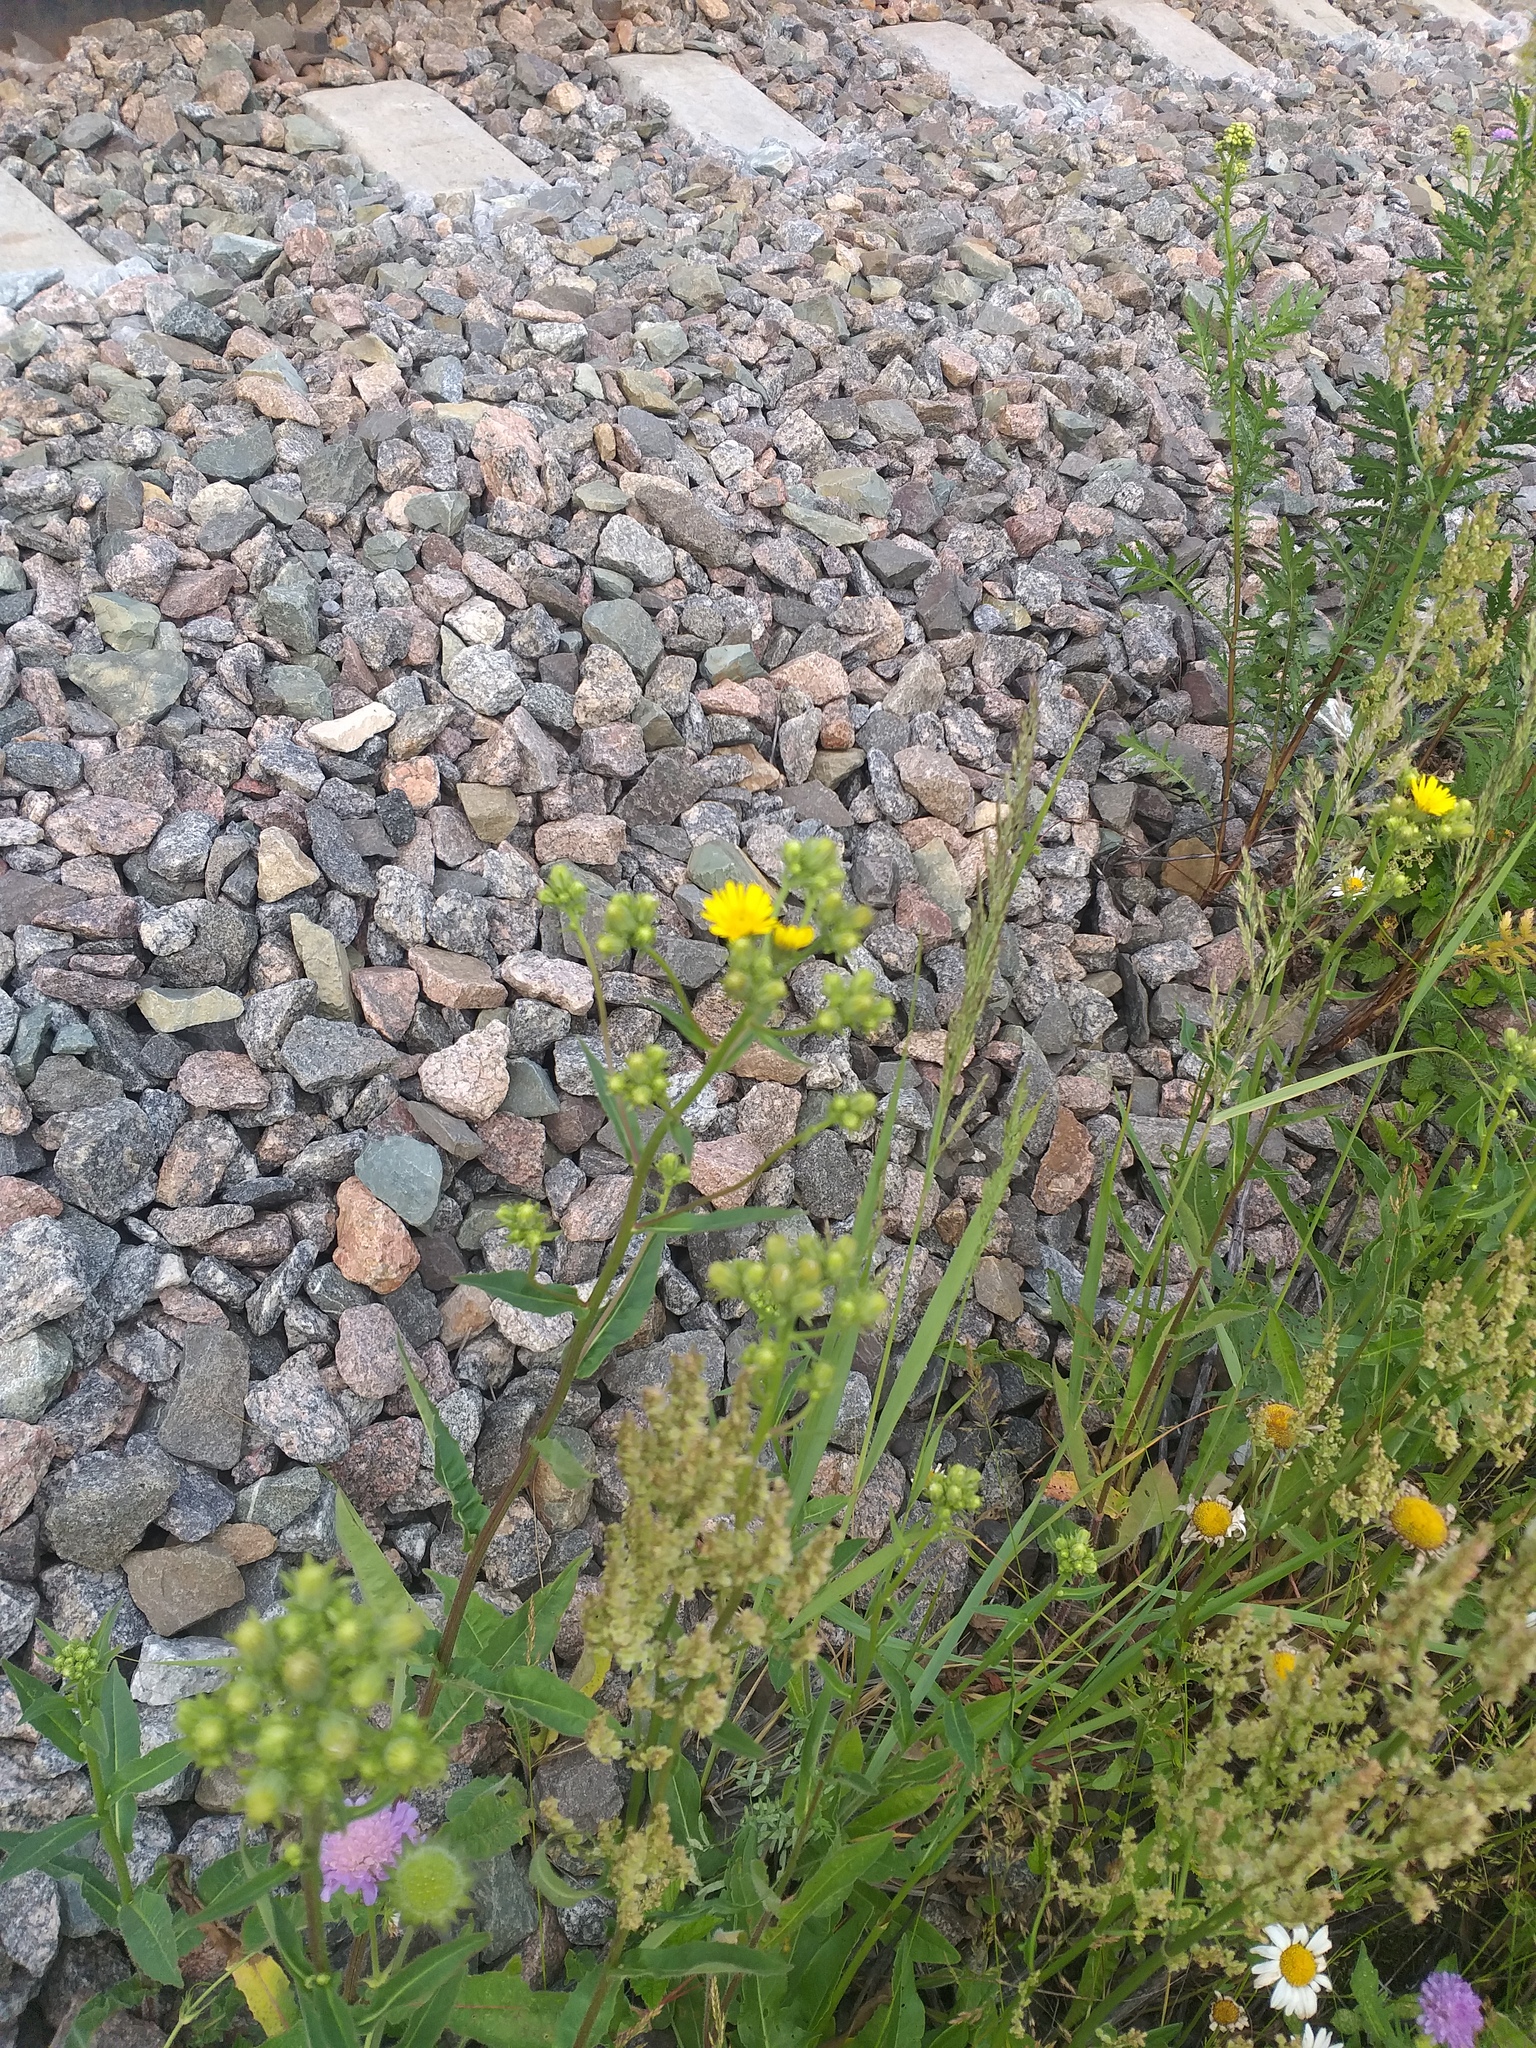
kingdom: Plantae
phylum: Tracheophyta
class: Magnoliopsida
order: Asterales
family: Asteraceae
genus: Picris
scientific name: Picris hieracioides
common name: Hawkweed oxtongue
